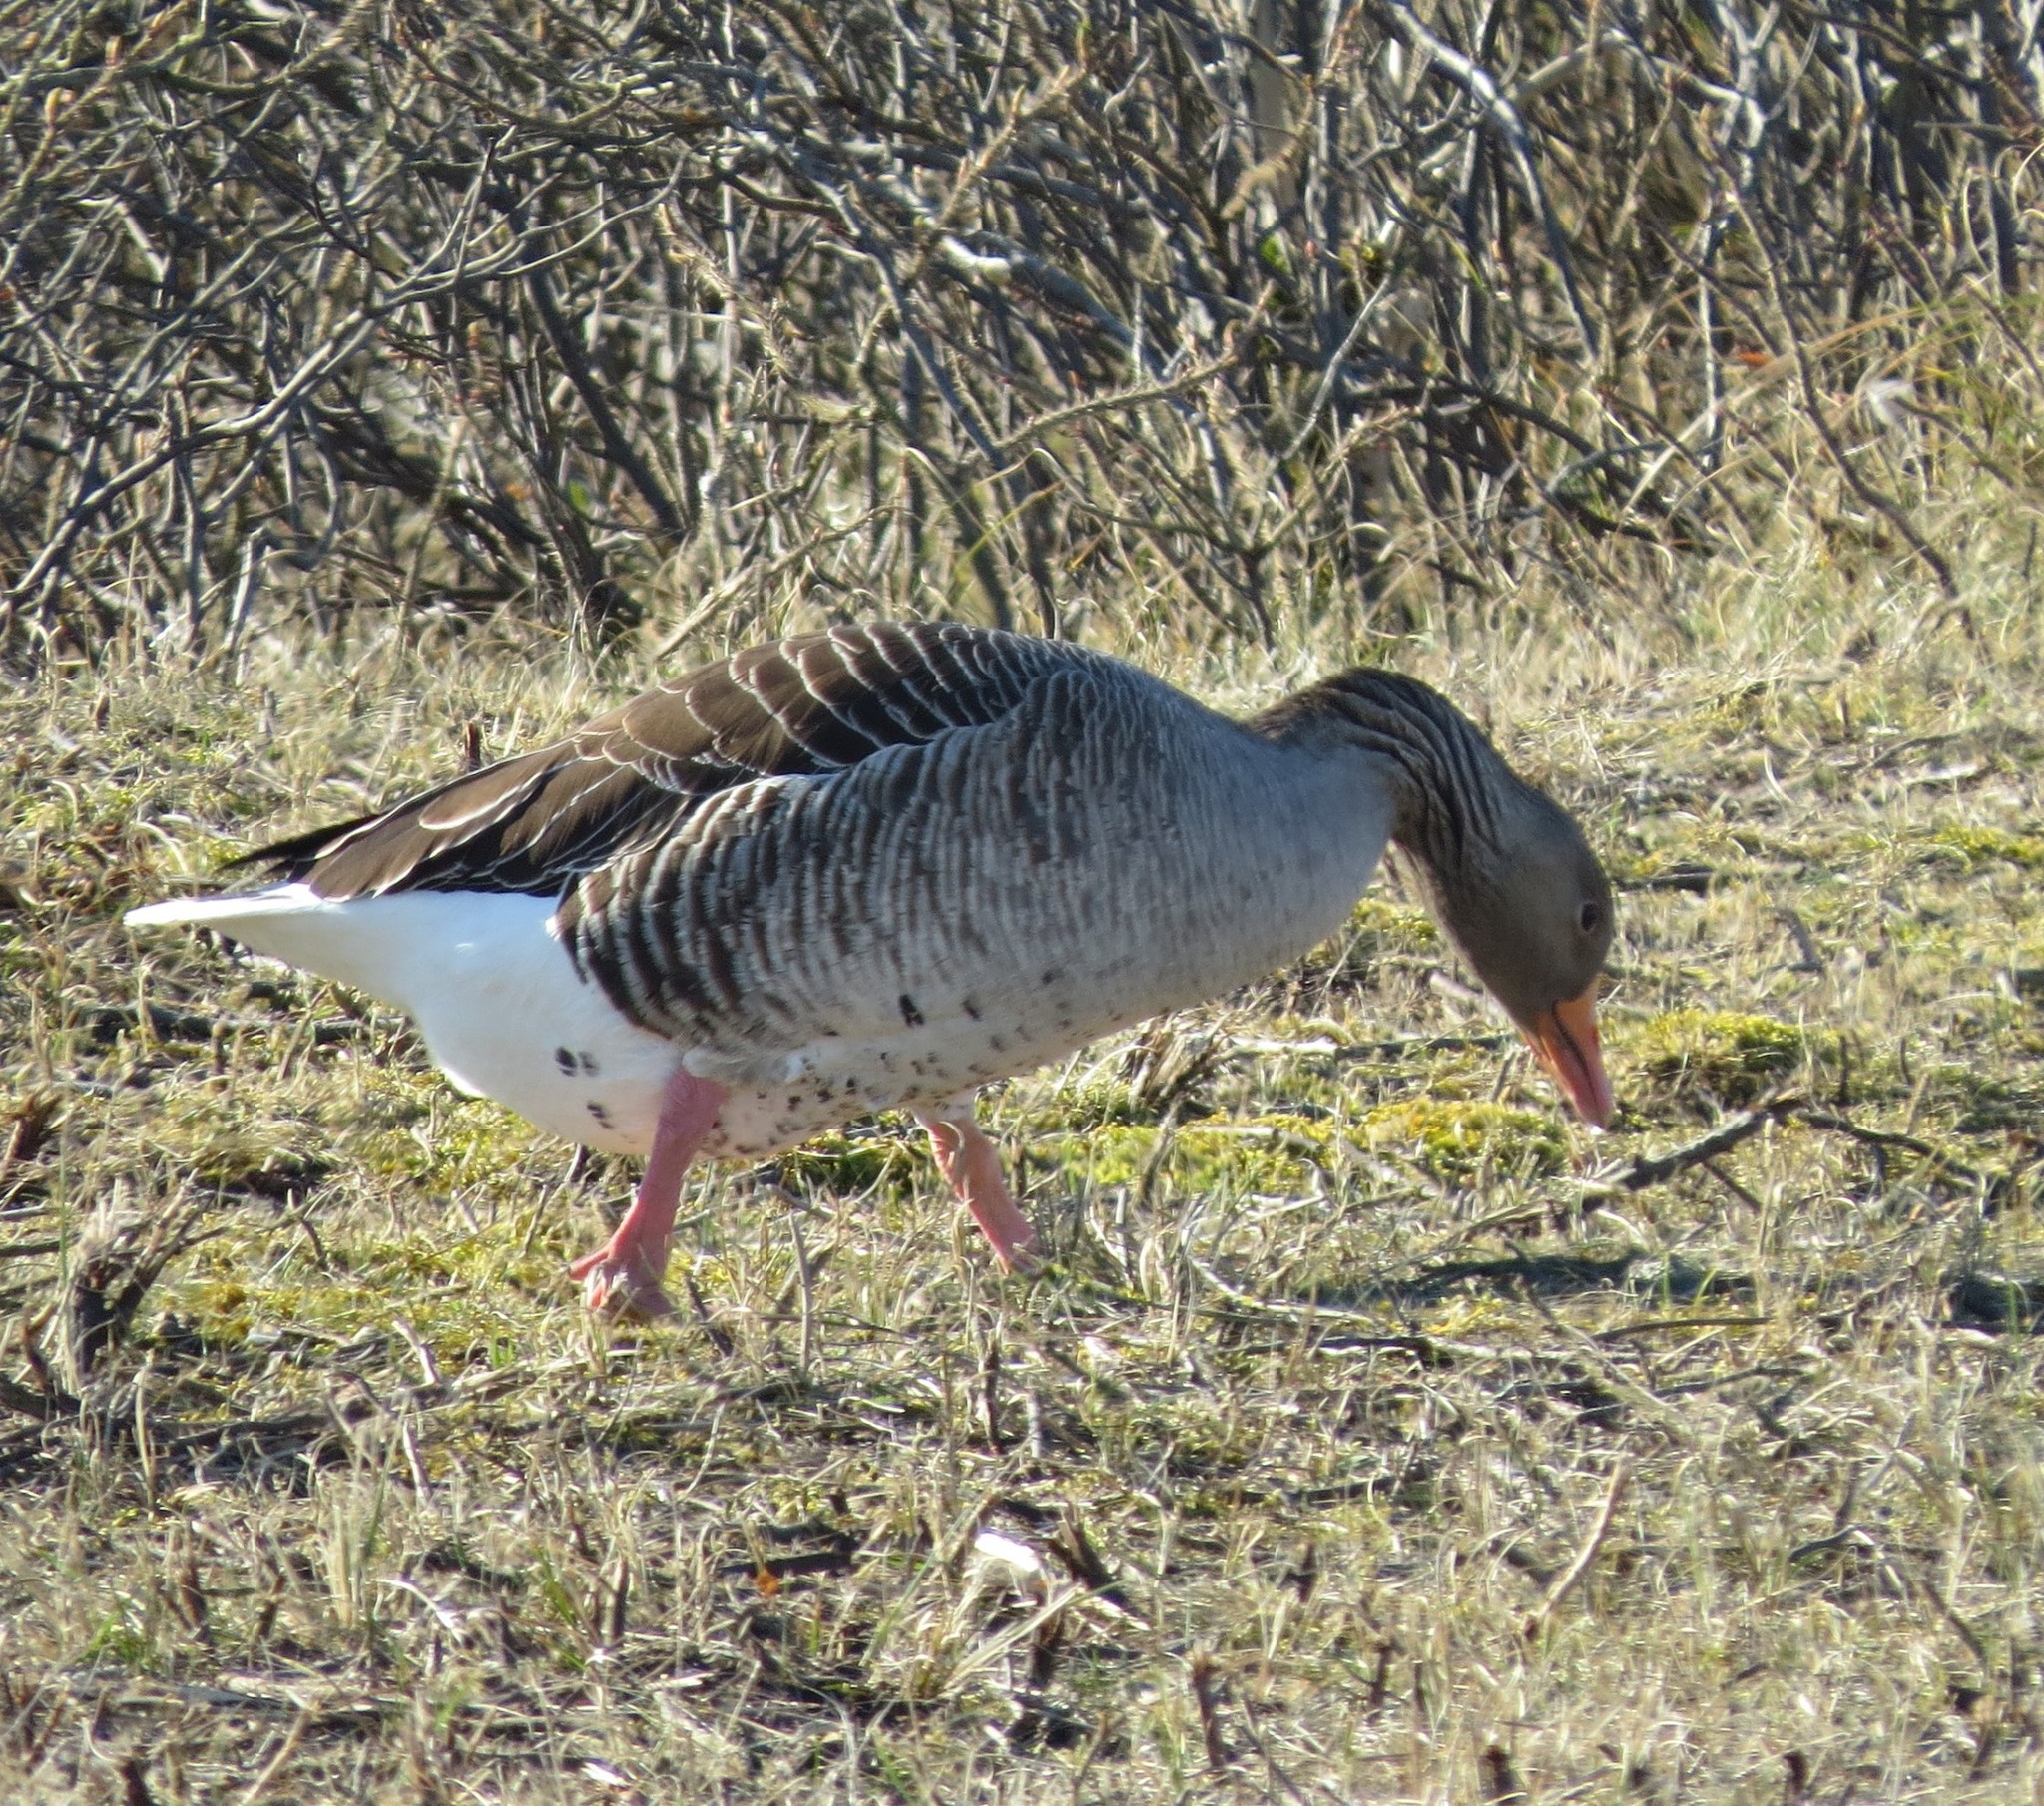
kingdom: Animalia
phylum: Chordata
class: Aves
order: Anseriformes
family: Anatidae
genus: Anser
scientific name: Anser anser
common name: Greylag goose
